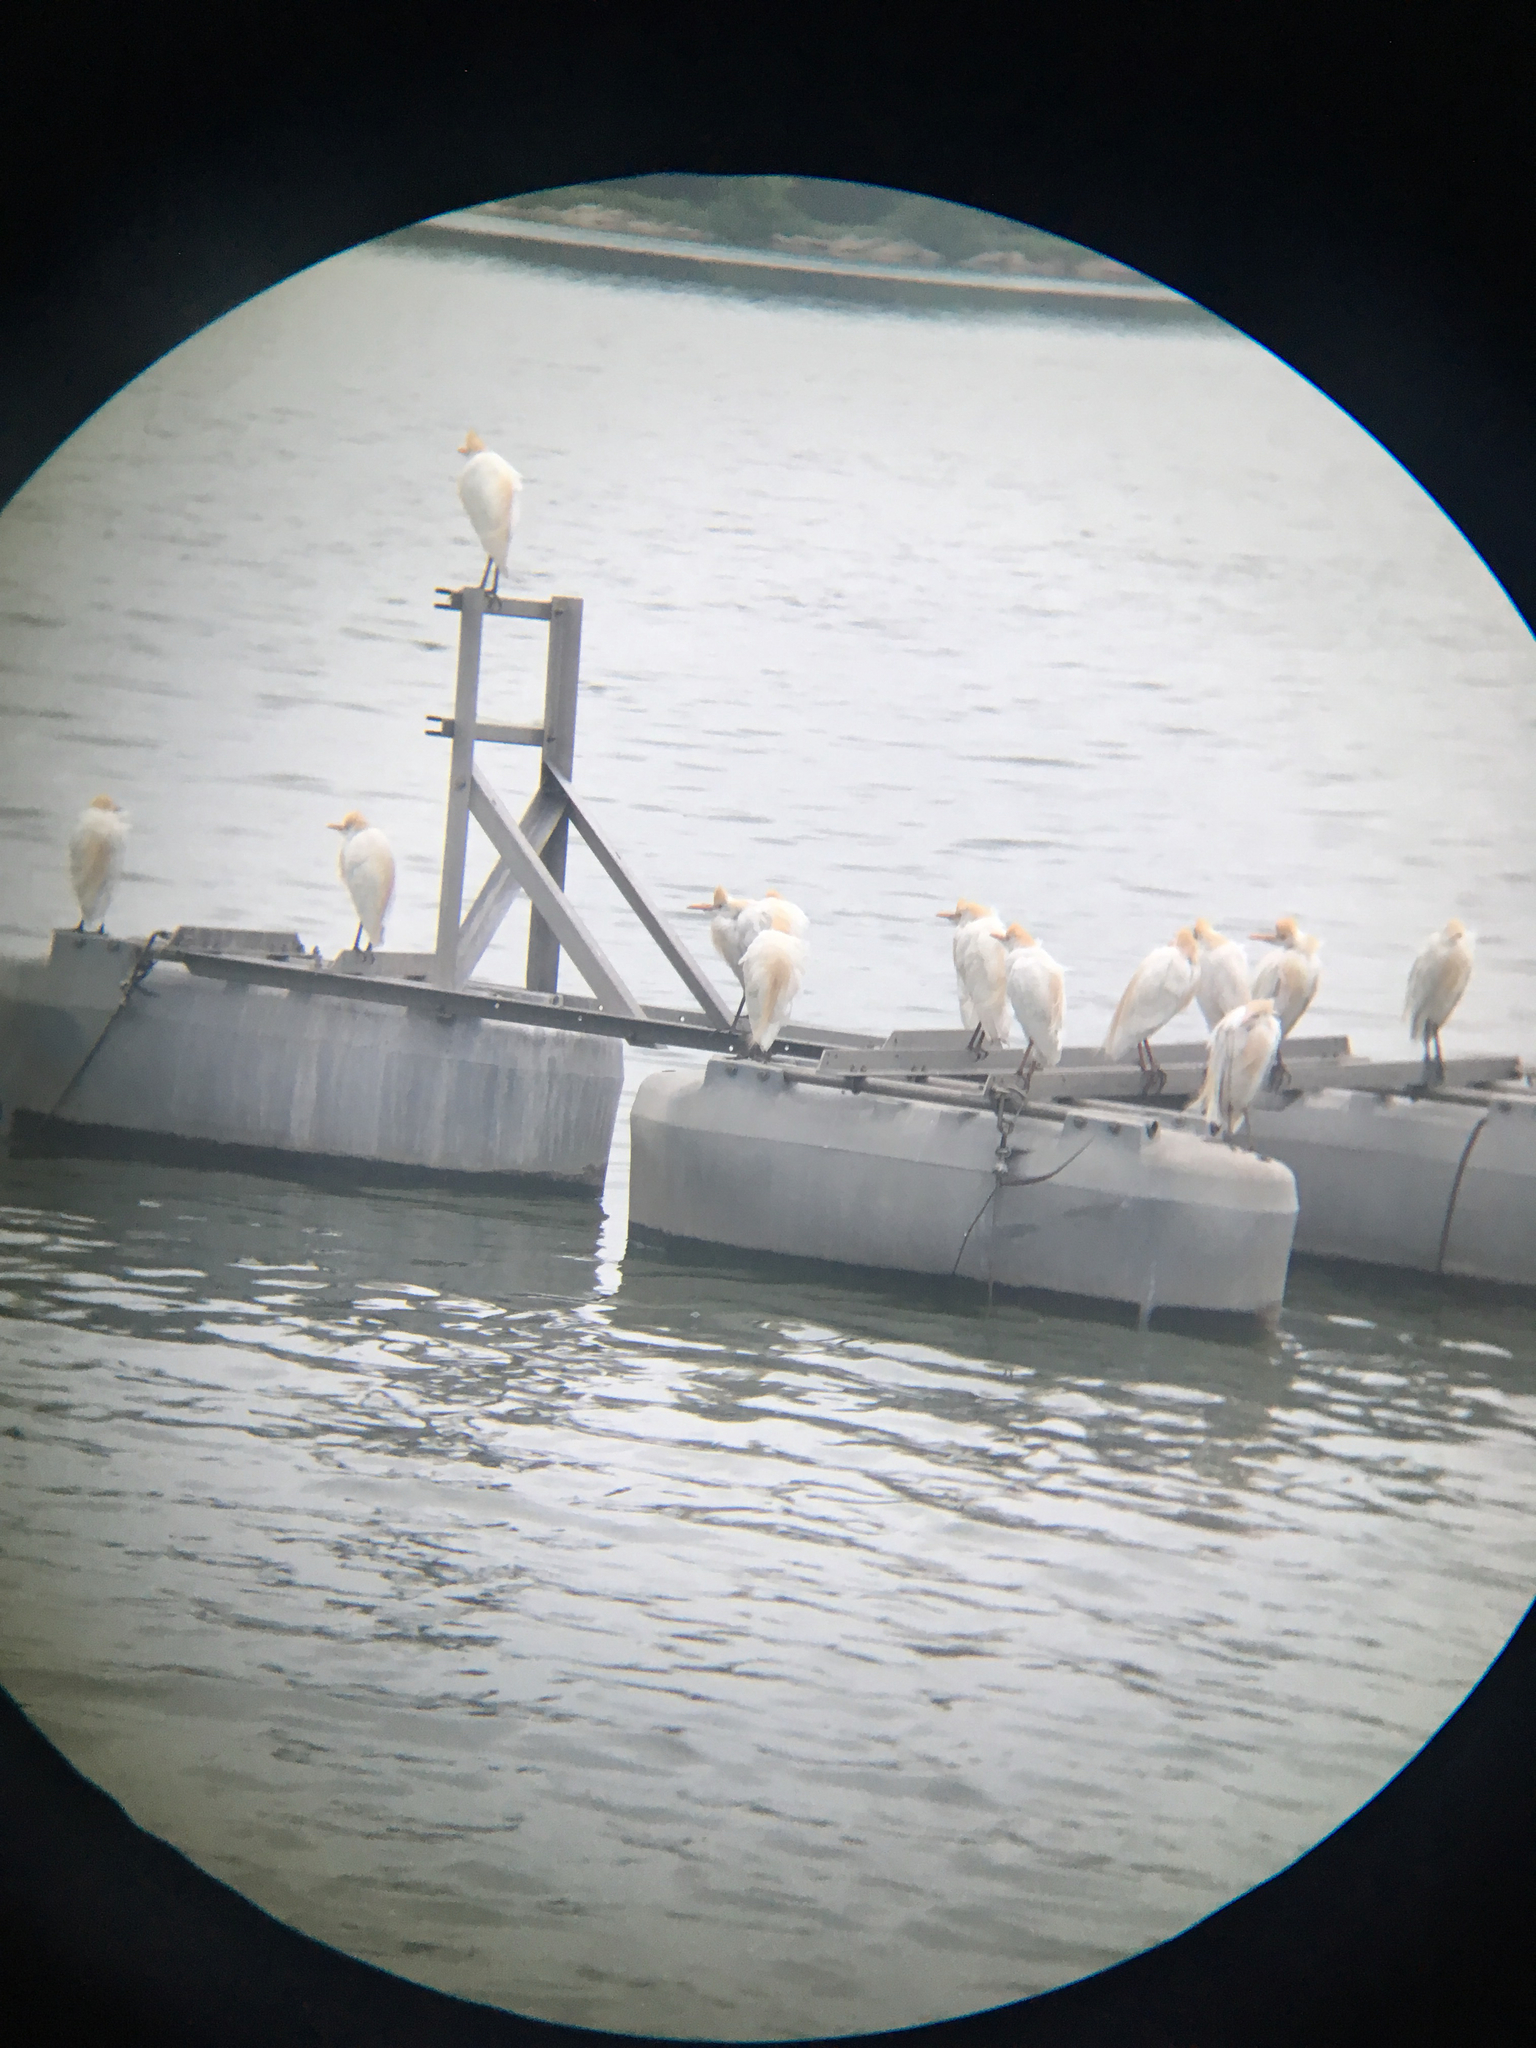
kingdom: Animalia
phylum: Chordata
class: Aves
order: Pelecaniformes
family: Ardeidae
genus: Bubulcus
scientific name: Bubulcus ibis
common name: Cattle egret
